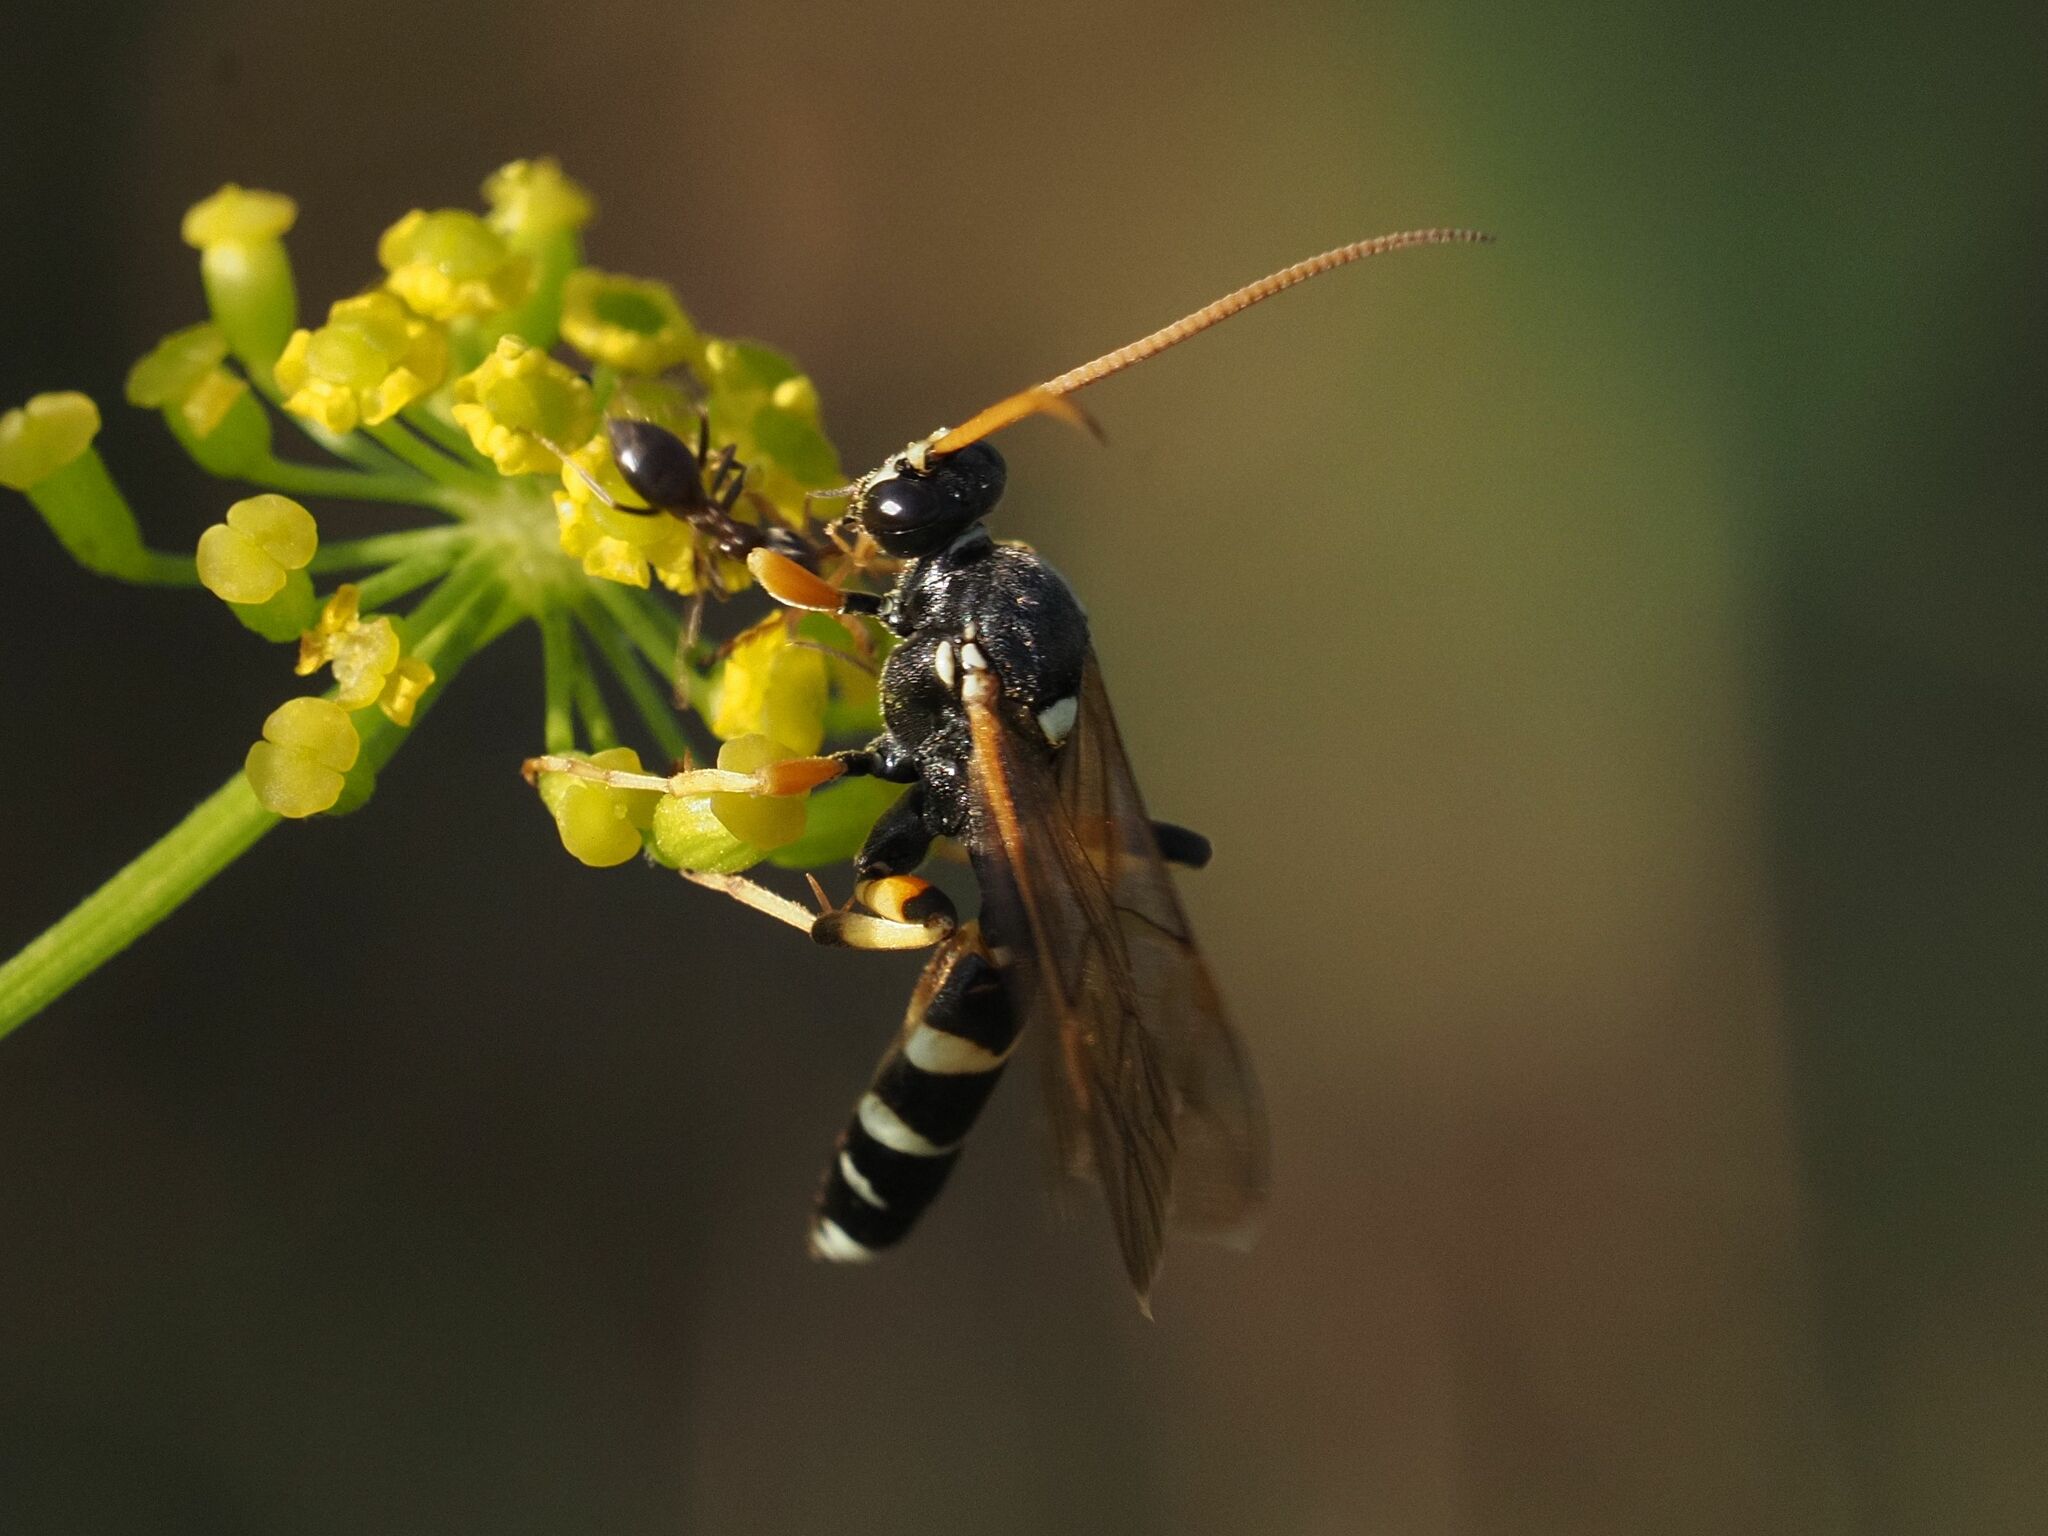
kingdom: Animalia
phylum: Arthropoda
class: Insecta
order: Hymenoptera
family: Ichneumonidae
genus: Ichneumon
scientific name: Ichneumon sarcitorius
